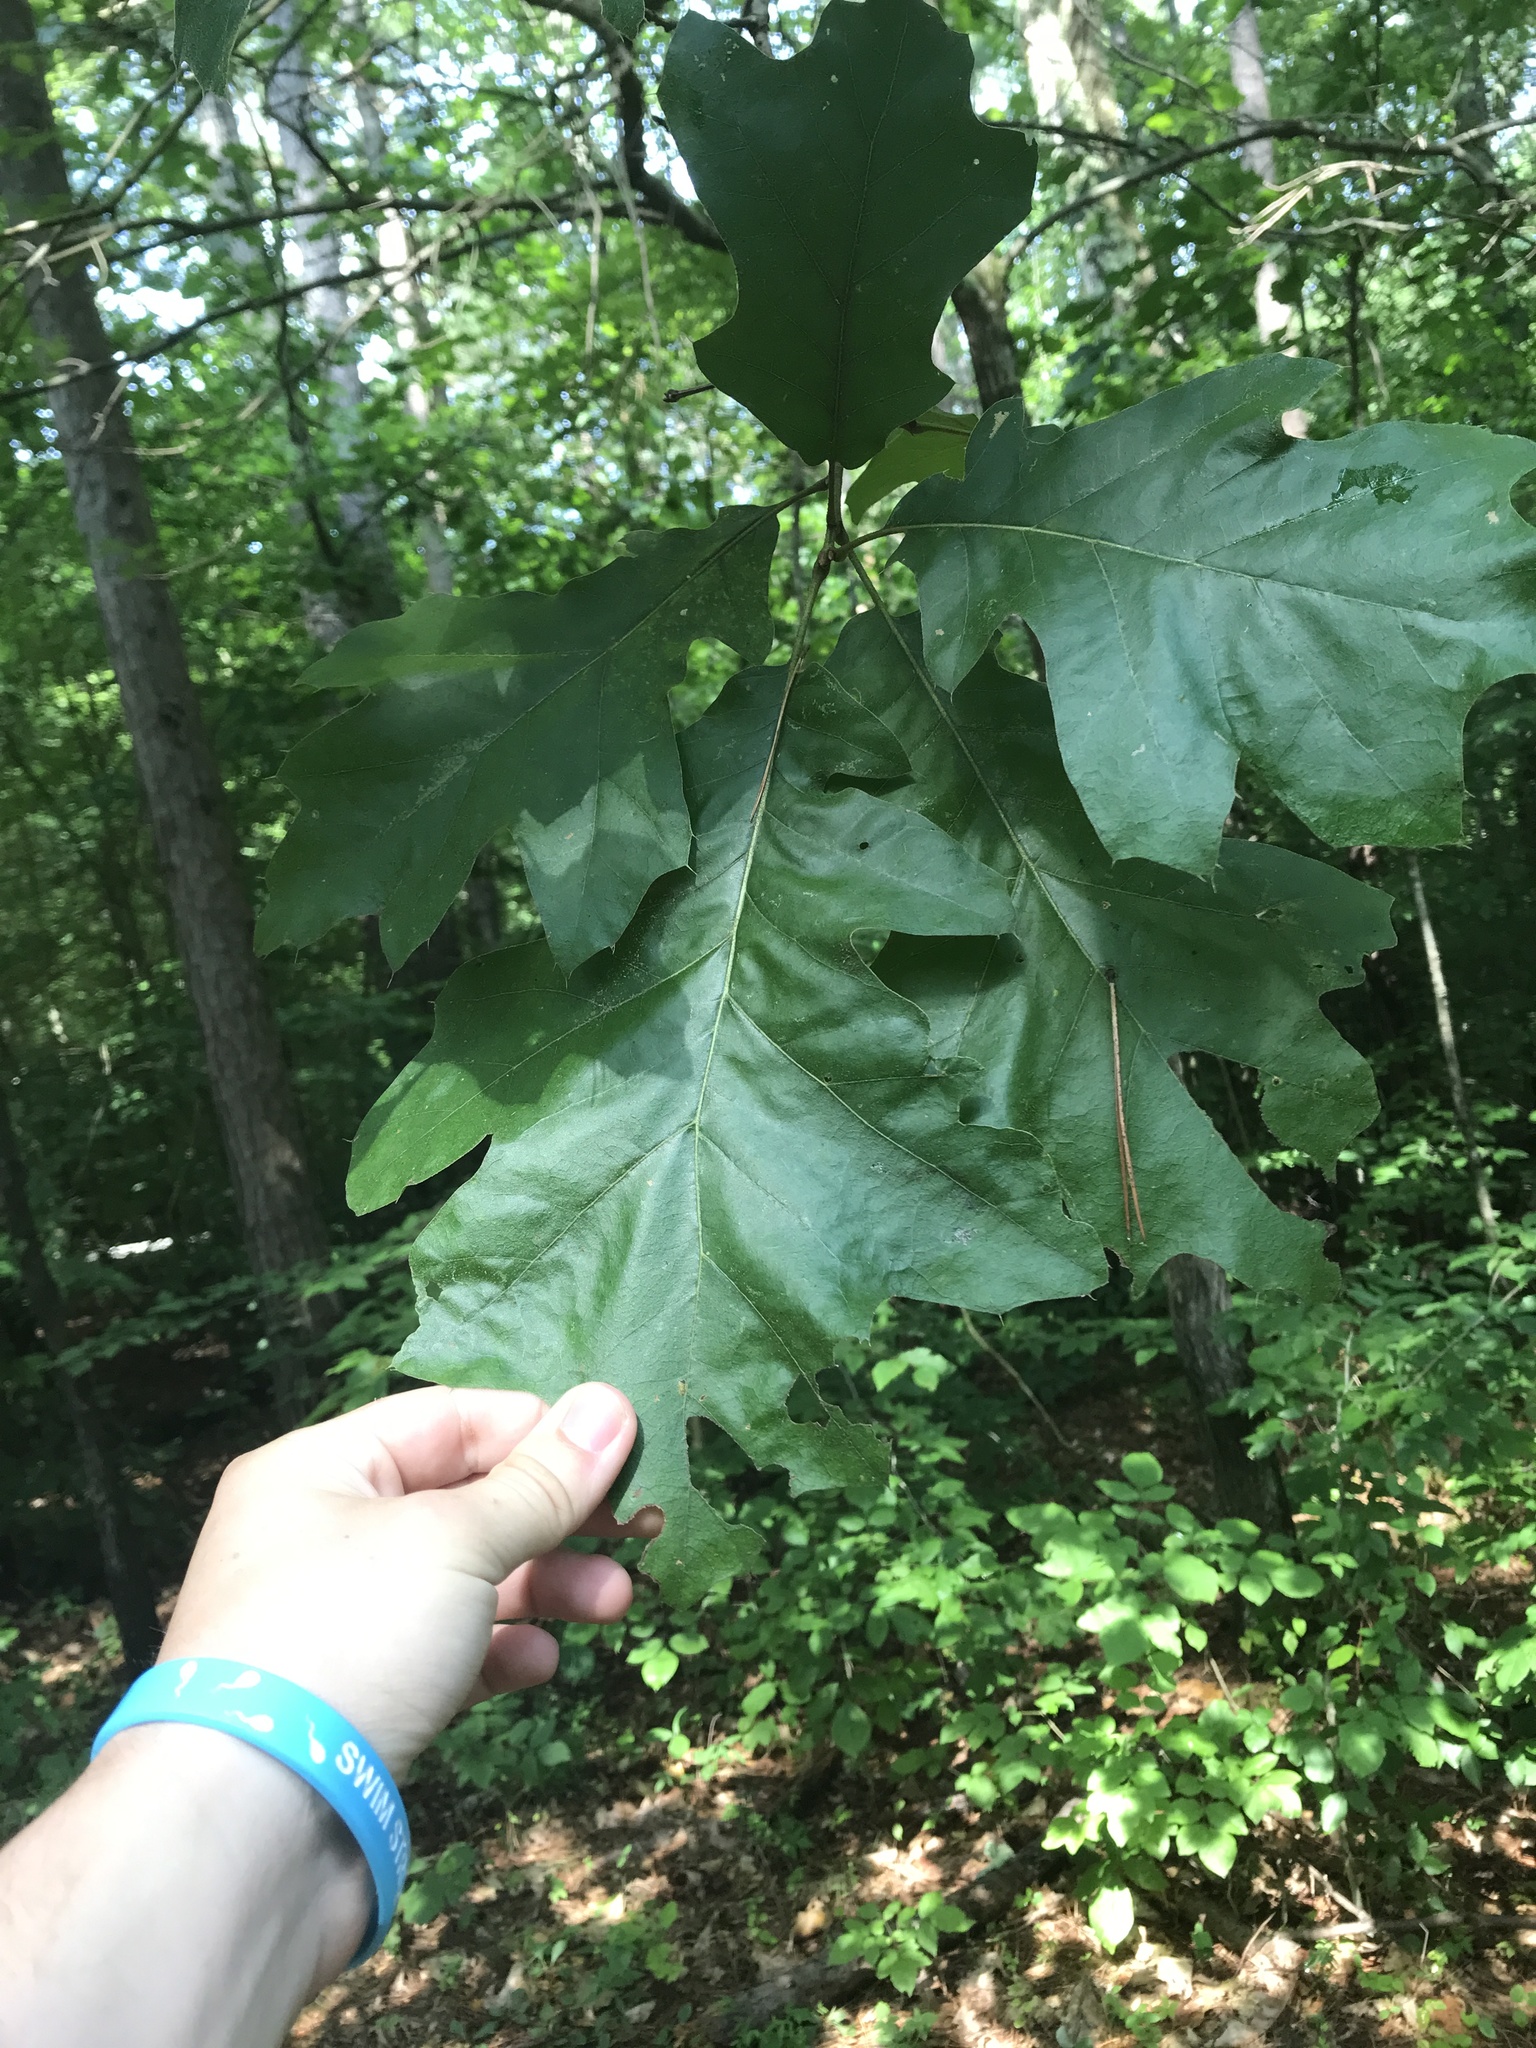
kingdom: Plantae
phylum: Tracheophyta
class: Magnoliopsida
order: Fagales
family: Fagaceae
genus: Quercus
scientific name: Quercus velutina
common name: Black oak
